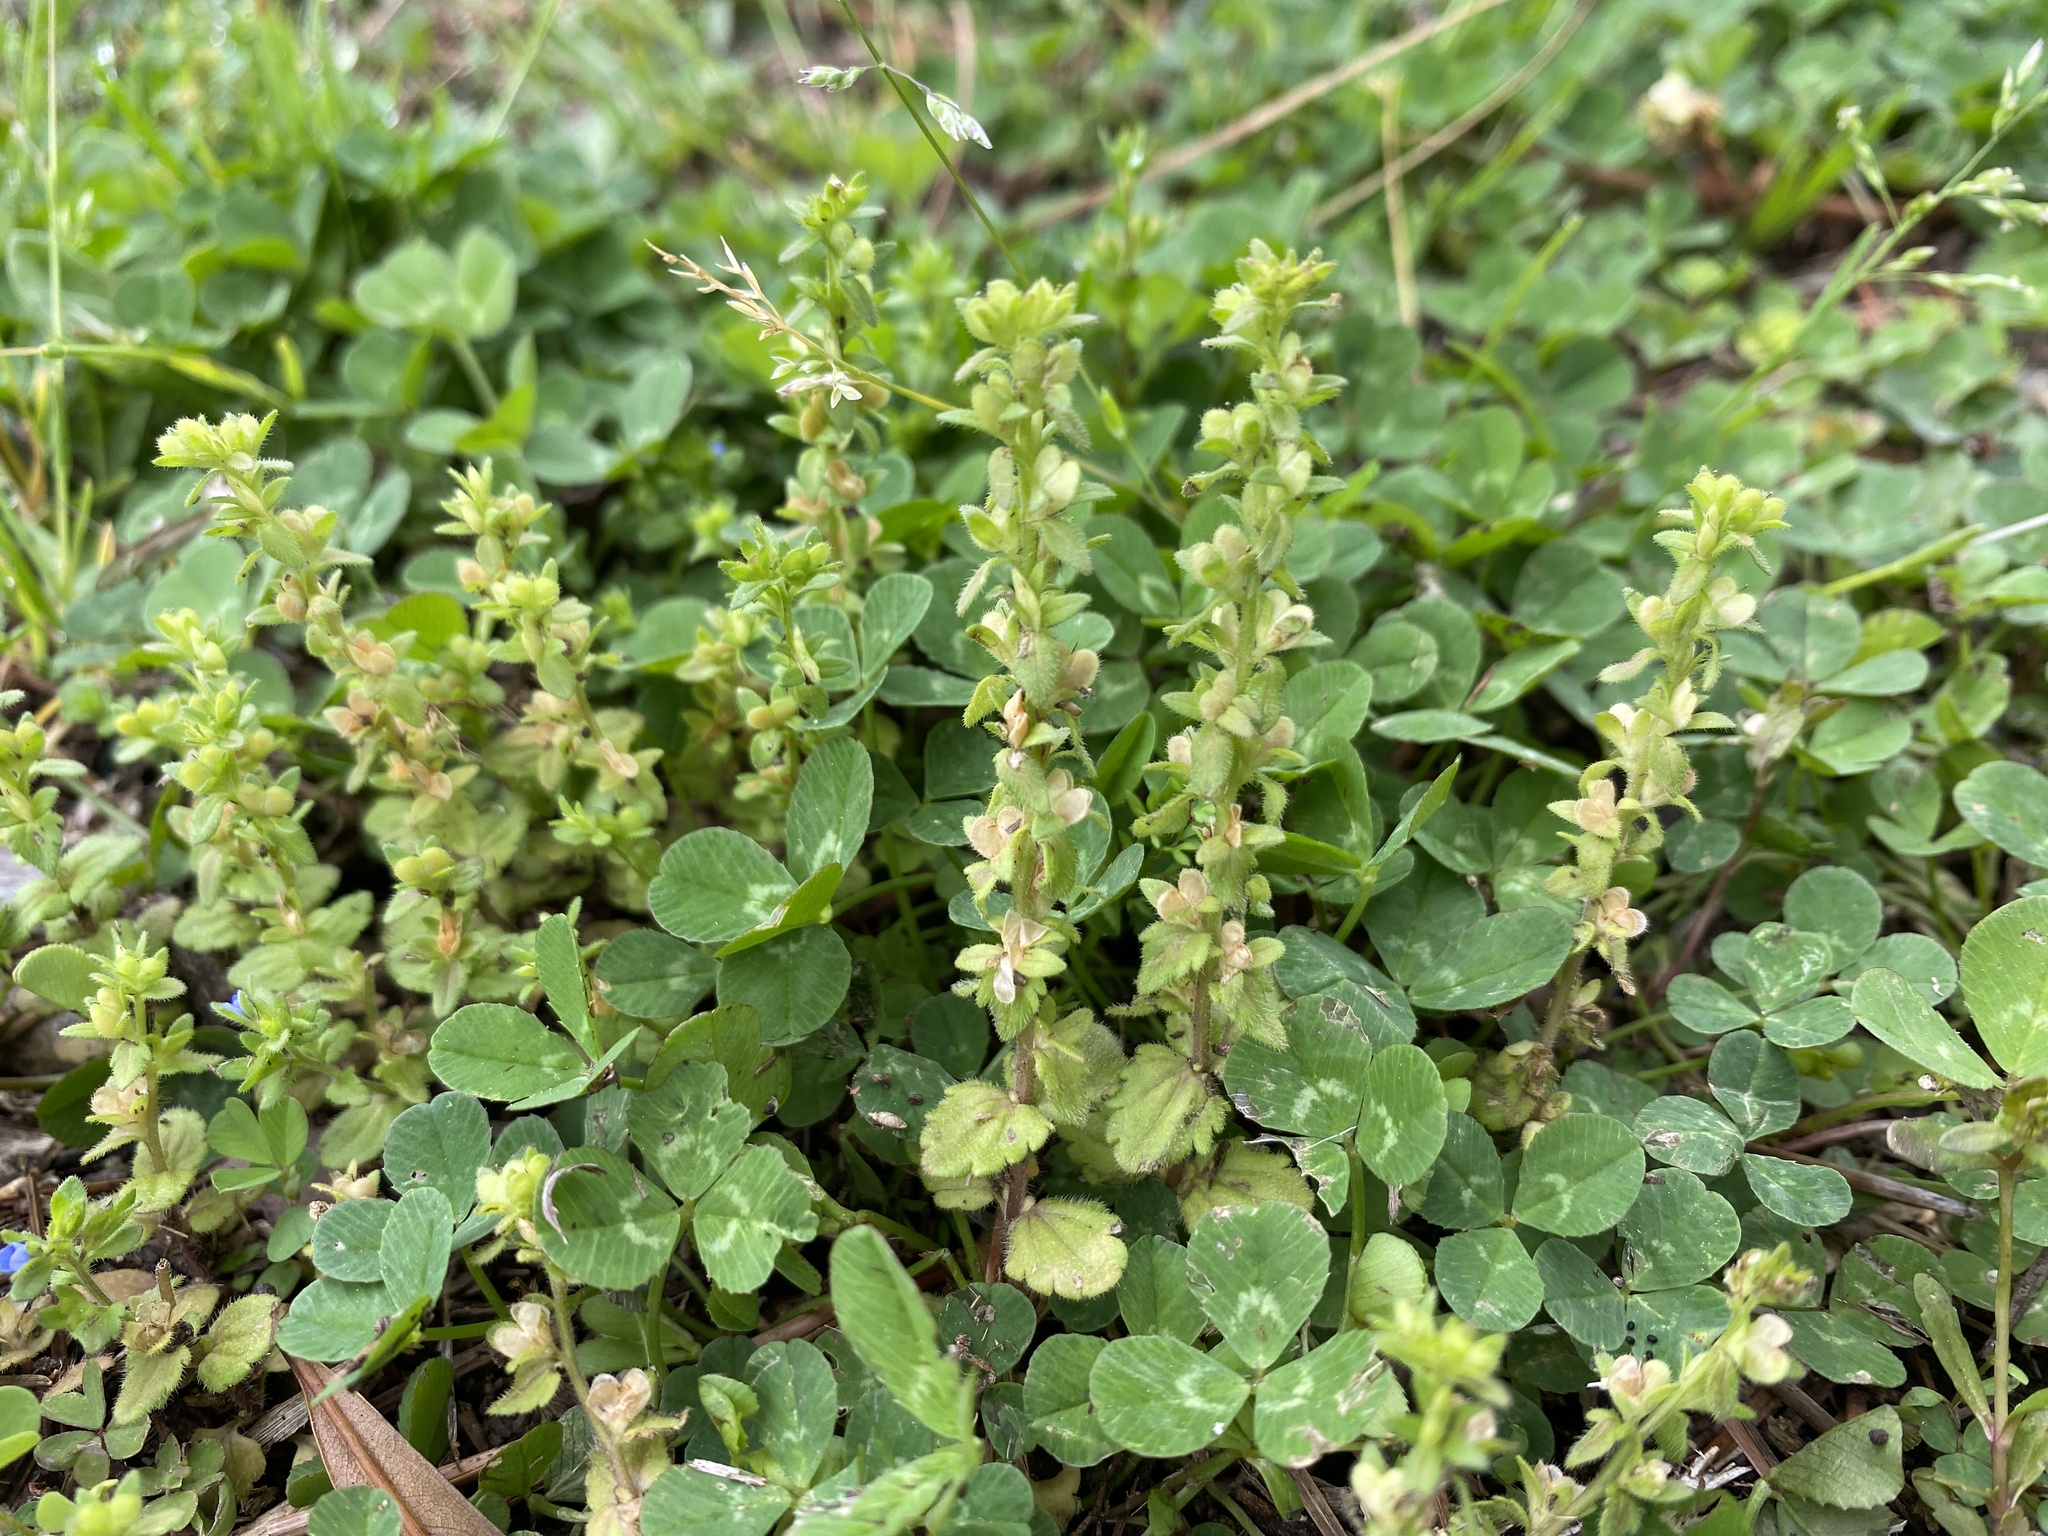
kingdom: Plantae
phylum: Tracheophyta
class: Magnoliopsida
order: Lamiales
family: Plantaginaceae
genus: Veronica
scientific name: Veronica arvensis
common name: Corn speedwell
